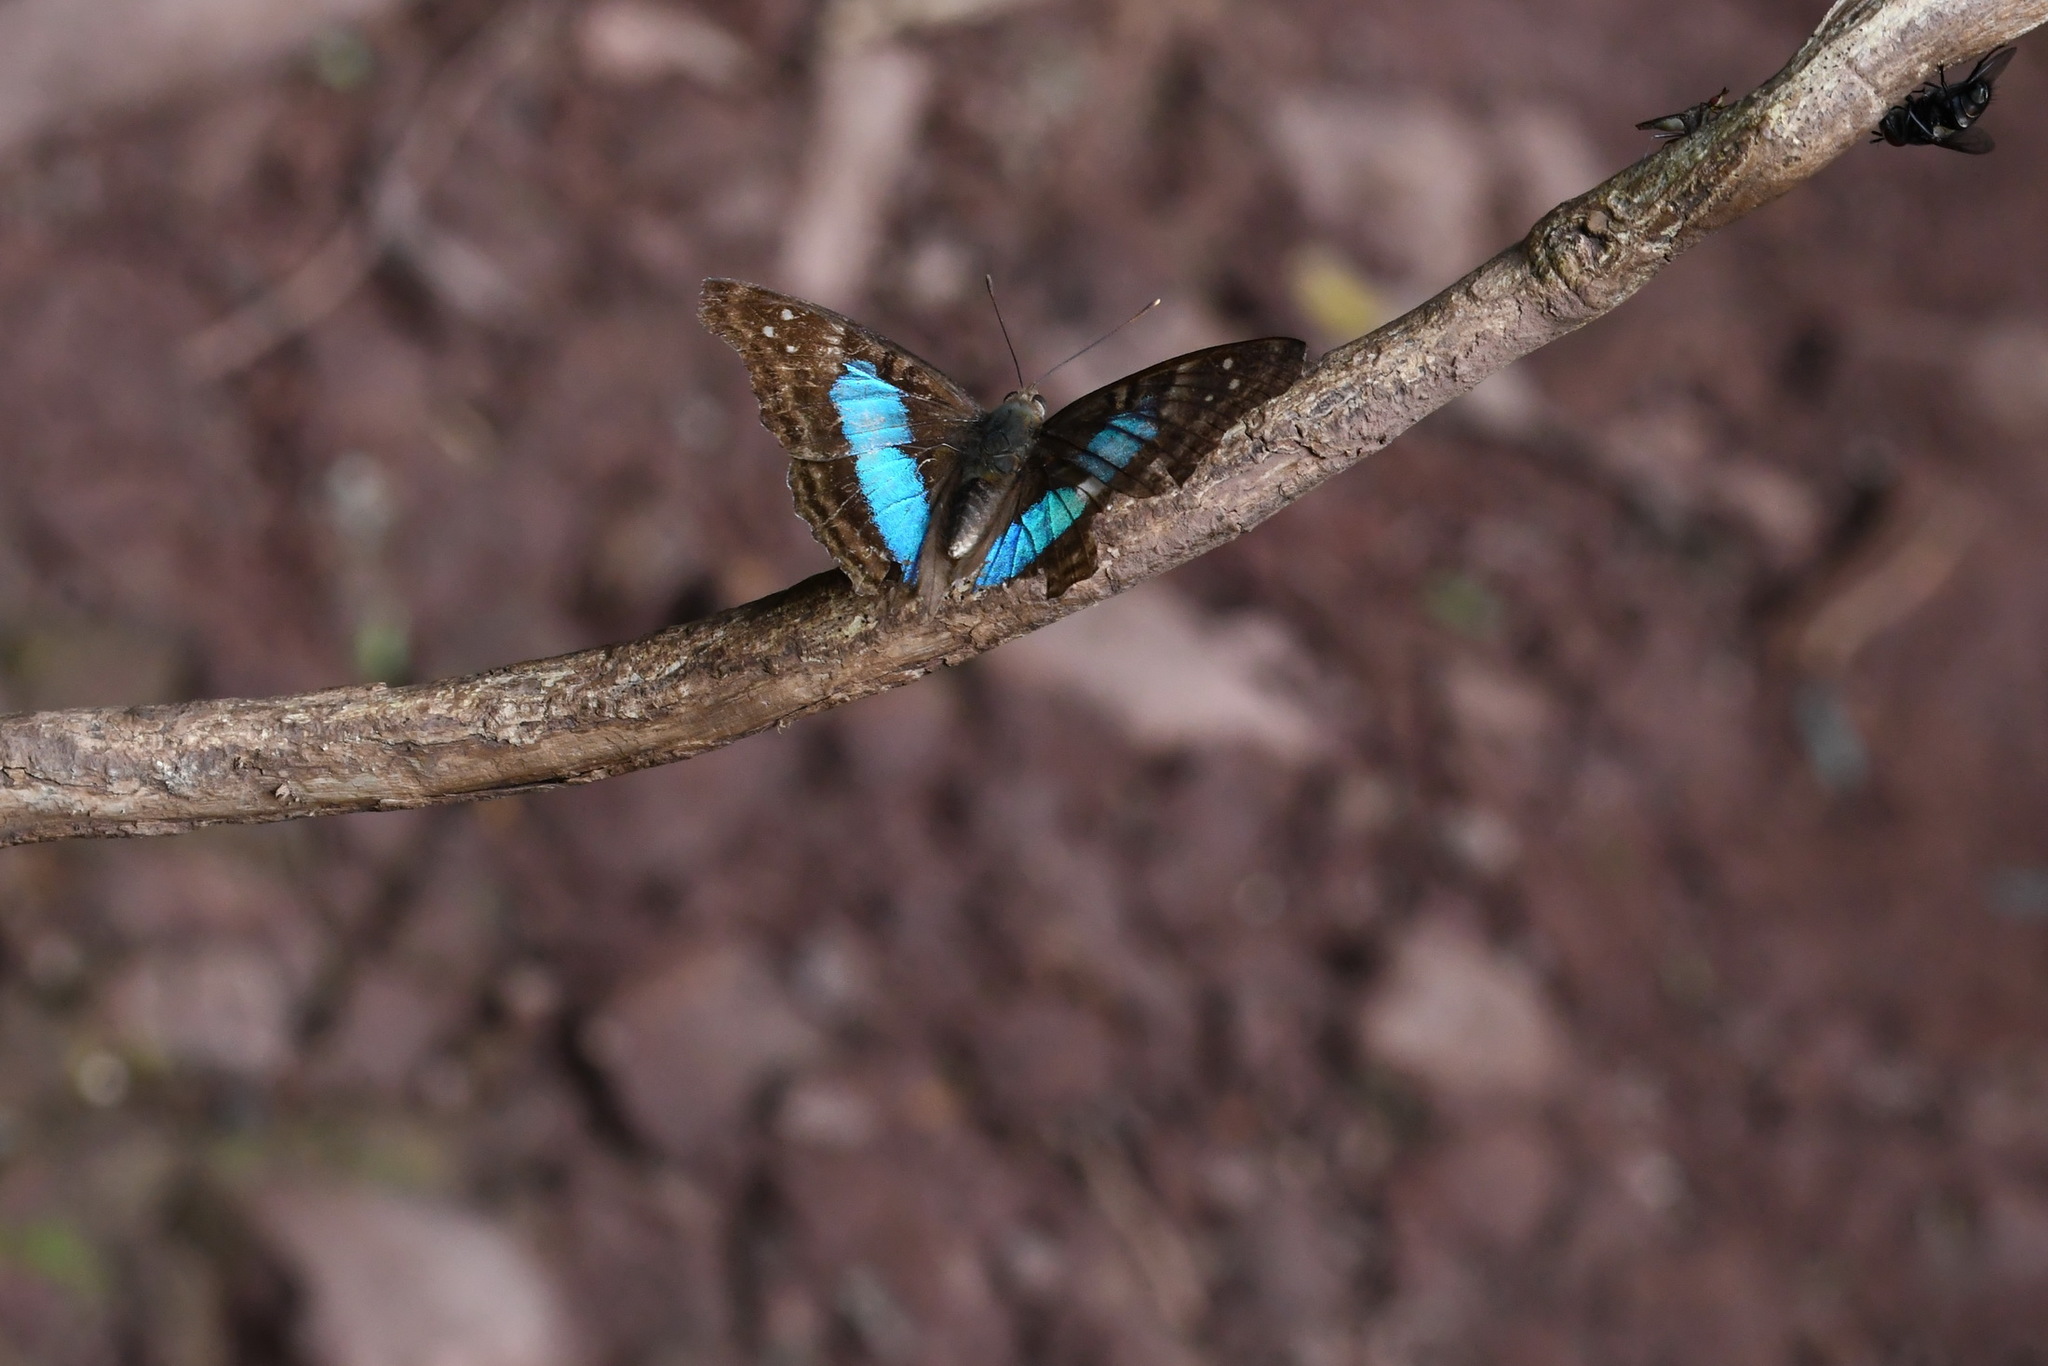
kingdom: Animalia
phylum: Arthropoda
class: Insecta
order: Lepidoptera
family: Nymphalidae
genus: Doxocopa
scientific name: Doxocopa laurentia
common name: Turquoise emperor
